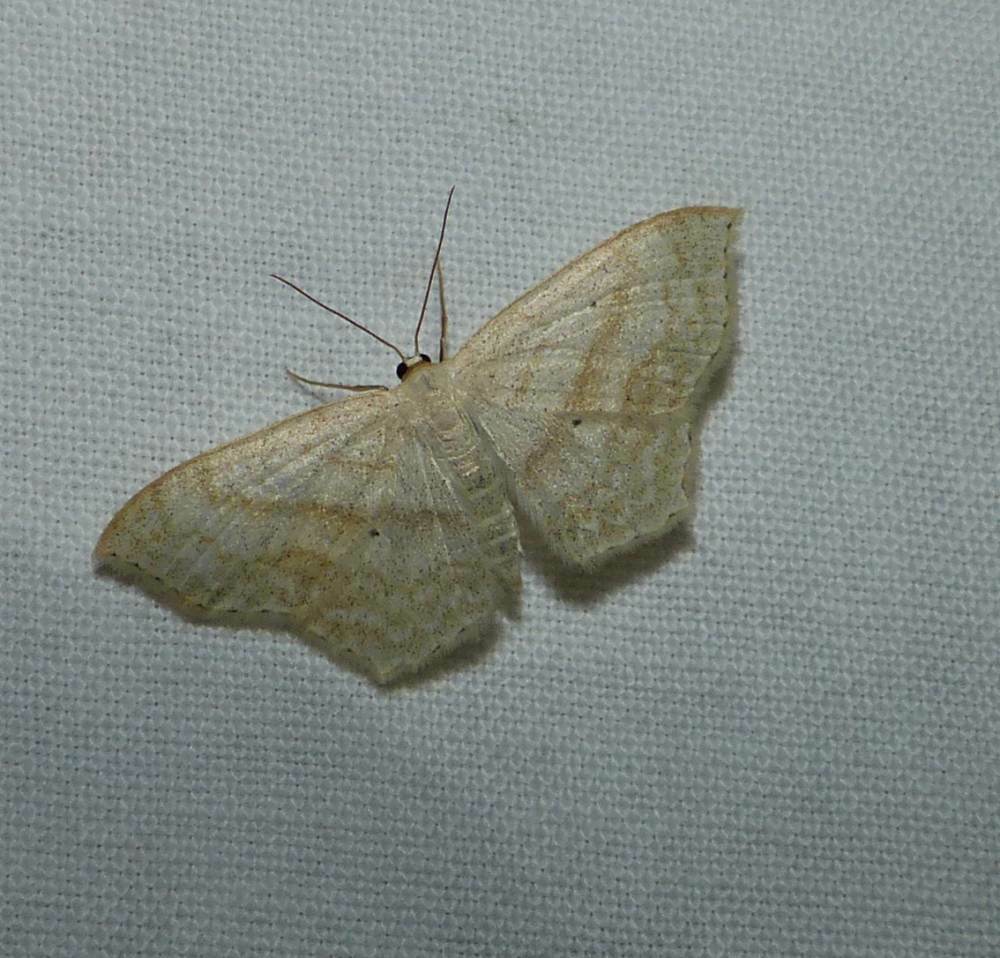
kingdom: Animalia
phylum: Arthropoda
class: Insecta
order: Lepidoptera
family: Geometridae
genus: Scopula
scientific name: Scopula limboundata
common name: Large lace border
